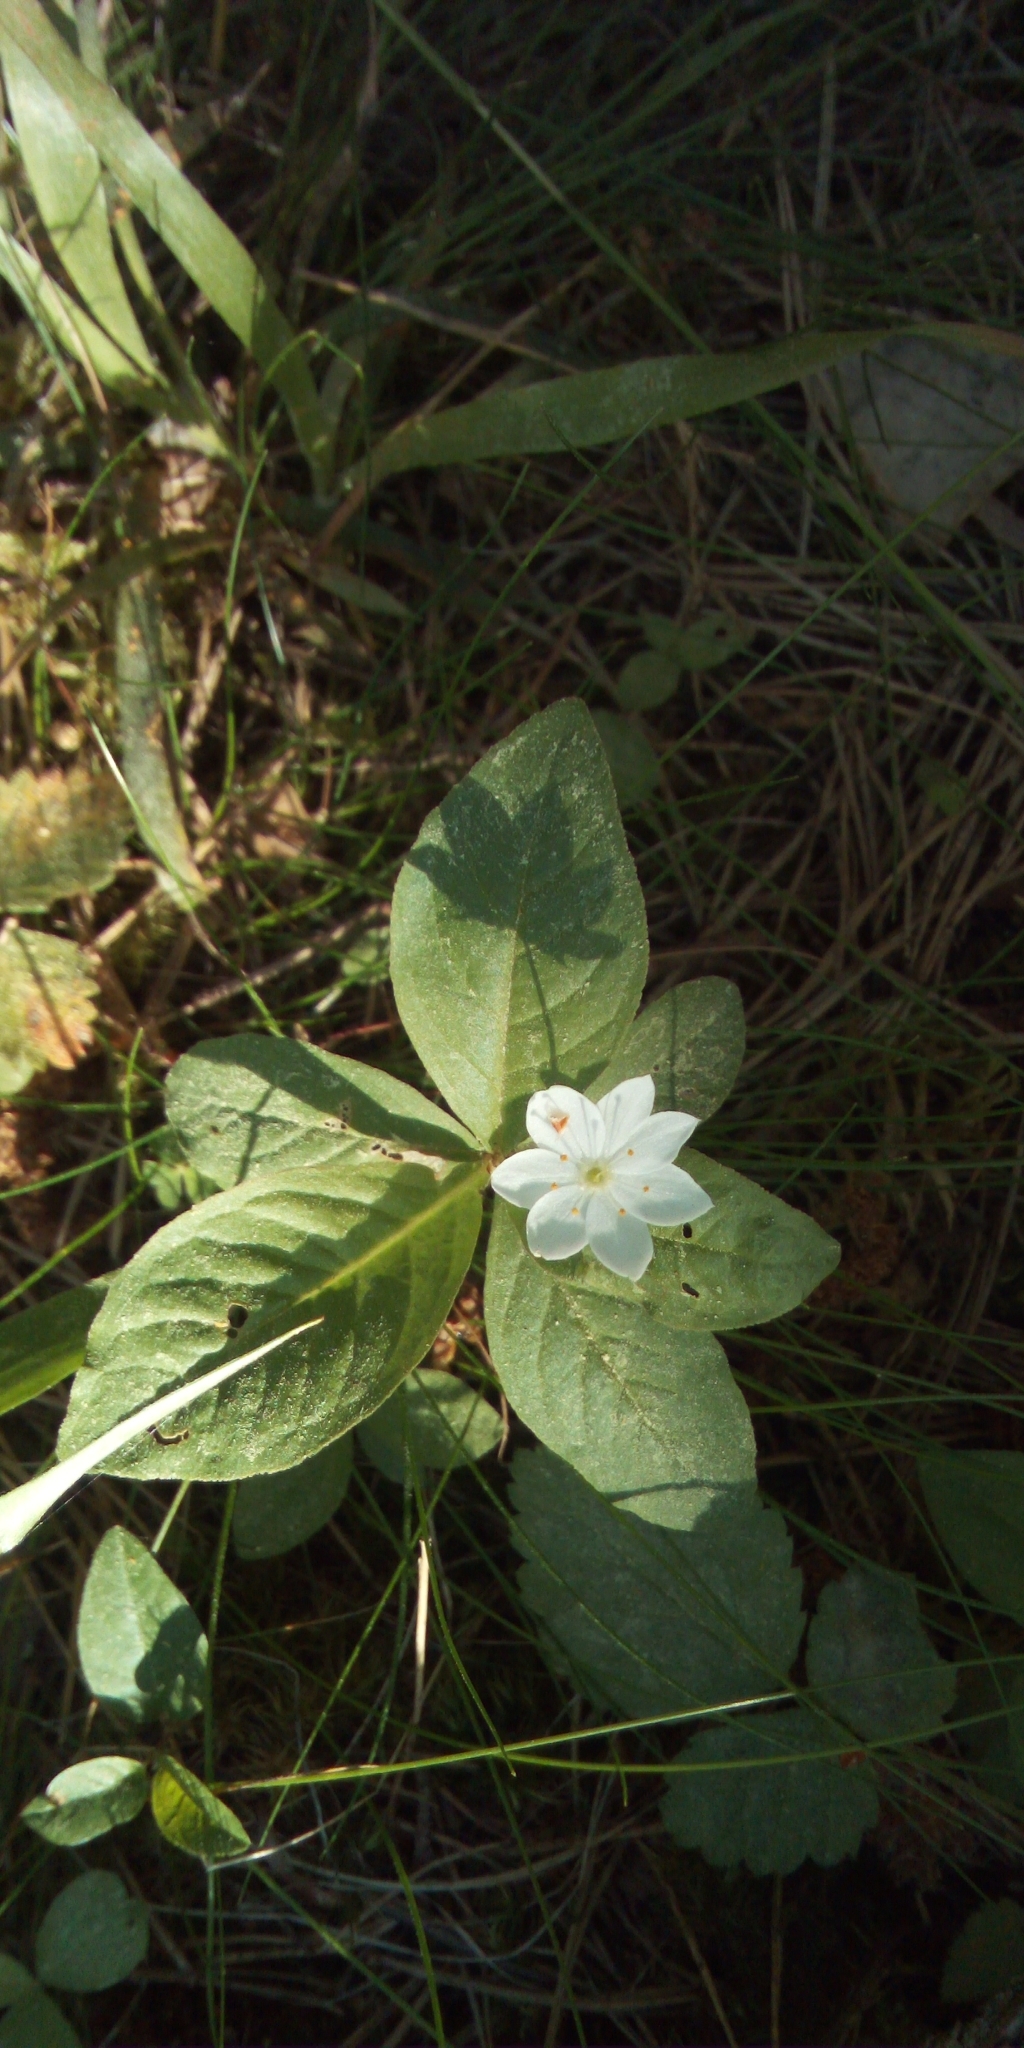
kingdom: Plantae
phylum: Tracheophyta
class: Magnoliopsida
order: Ericales
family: Primulaceae
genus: Lysimachia
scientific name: Lysimachia europaea
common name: Arctic starflower
